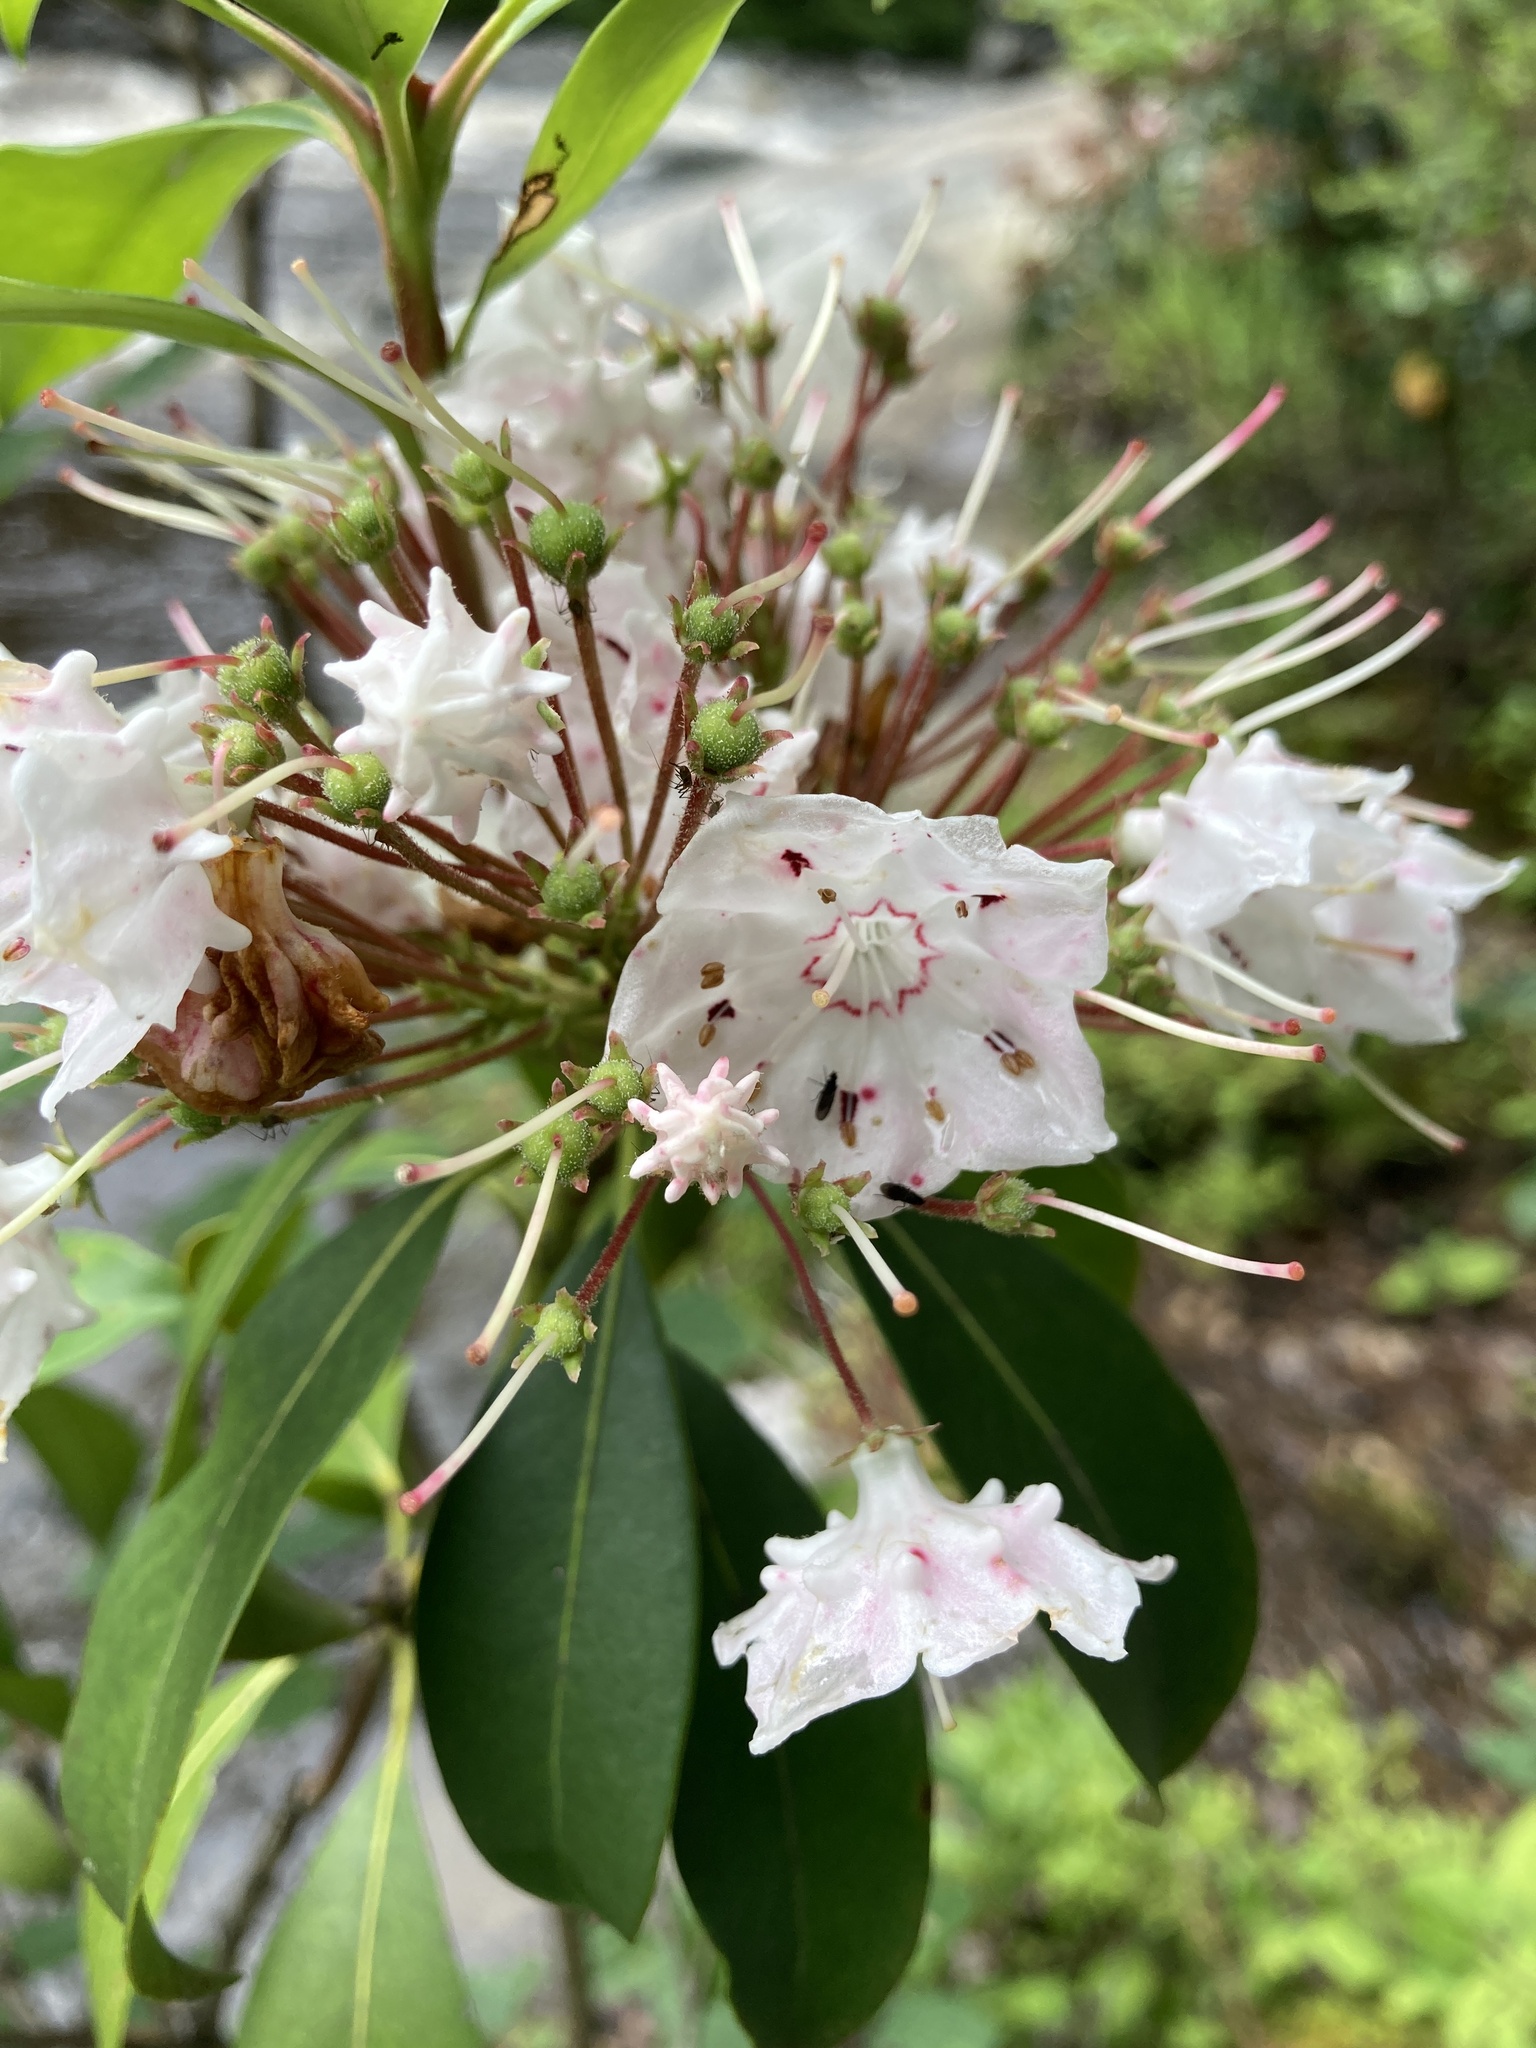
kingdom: Plantae
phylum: Tracheophyta
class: Magnoliopsida
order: Ericales
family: Ericaceae
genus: Kalmia
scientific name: Kalmia latifolia
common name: Mountain-laurel
